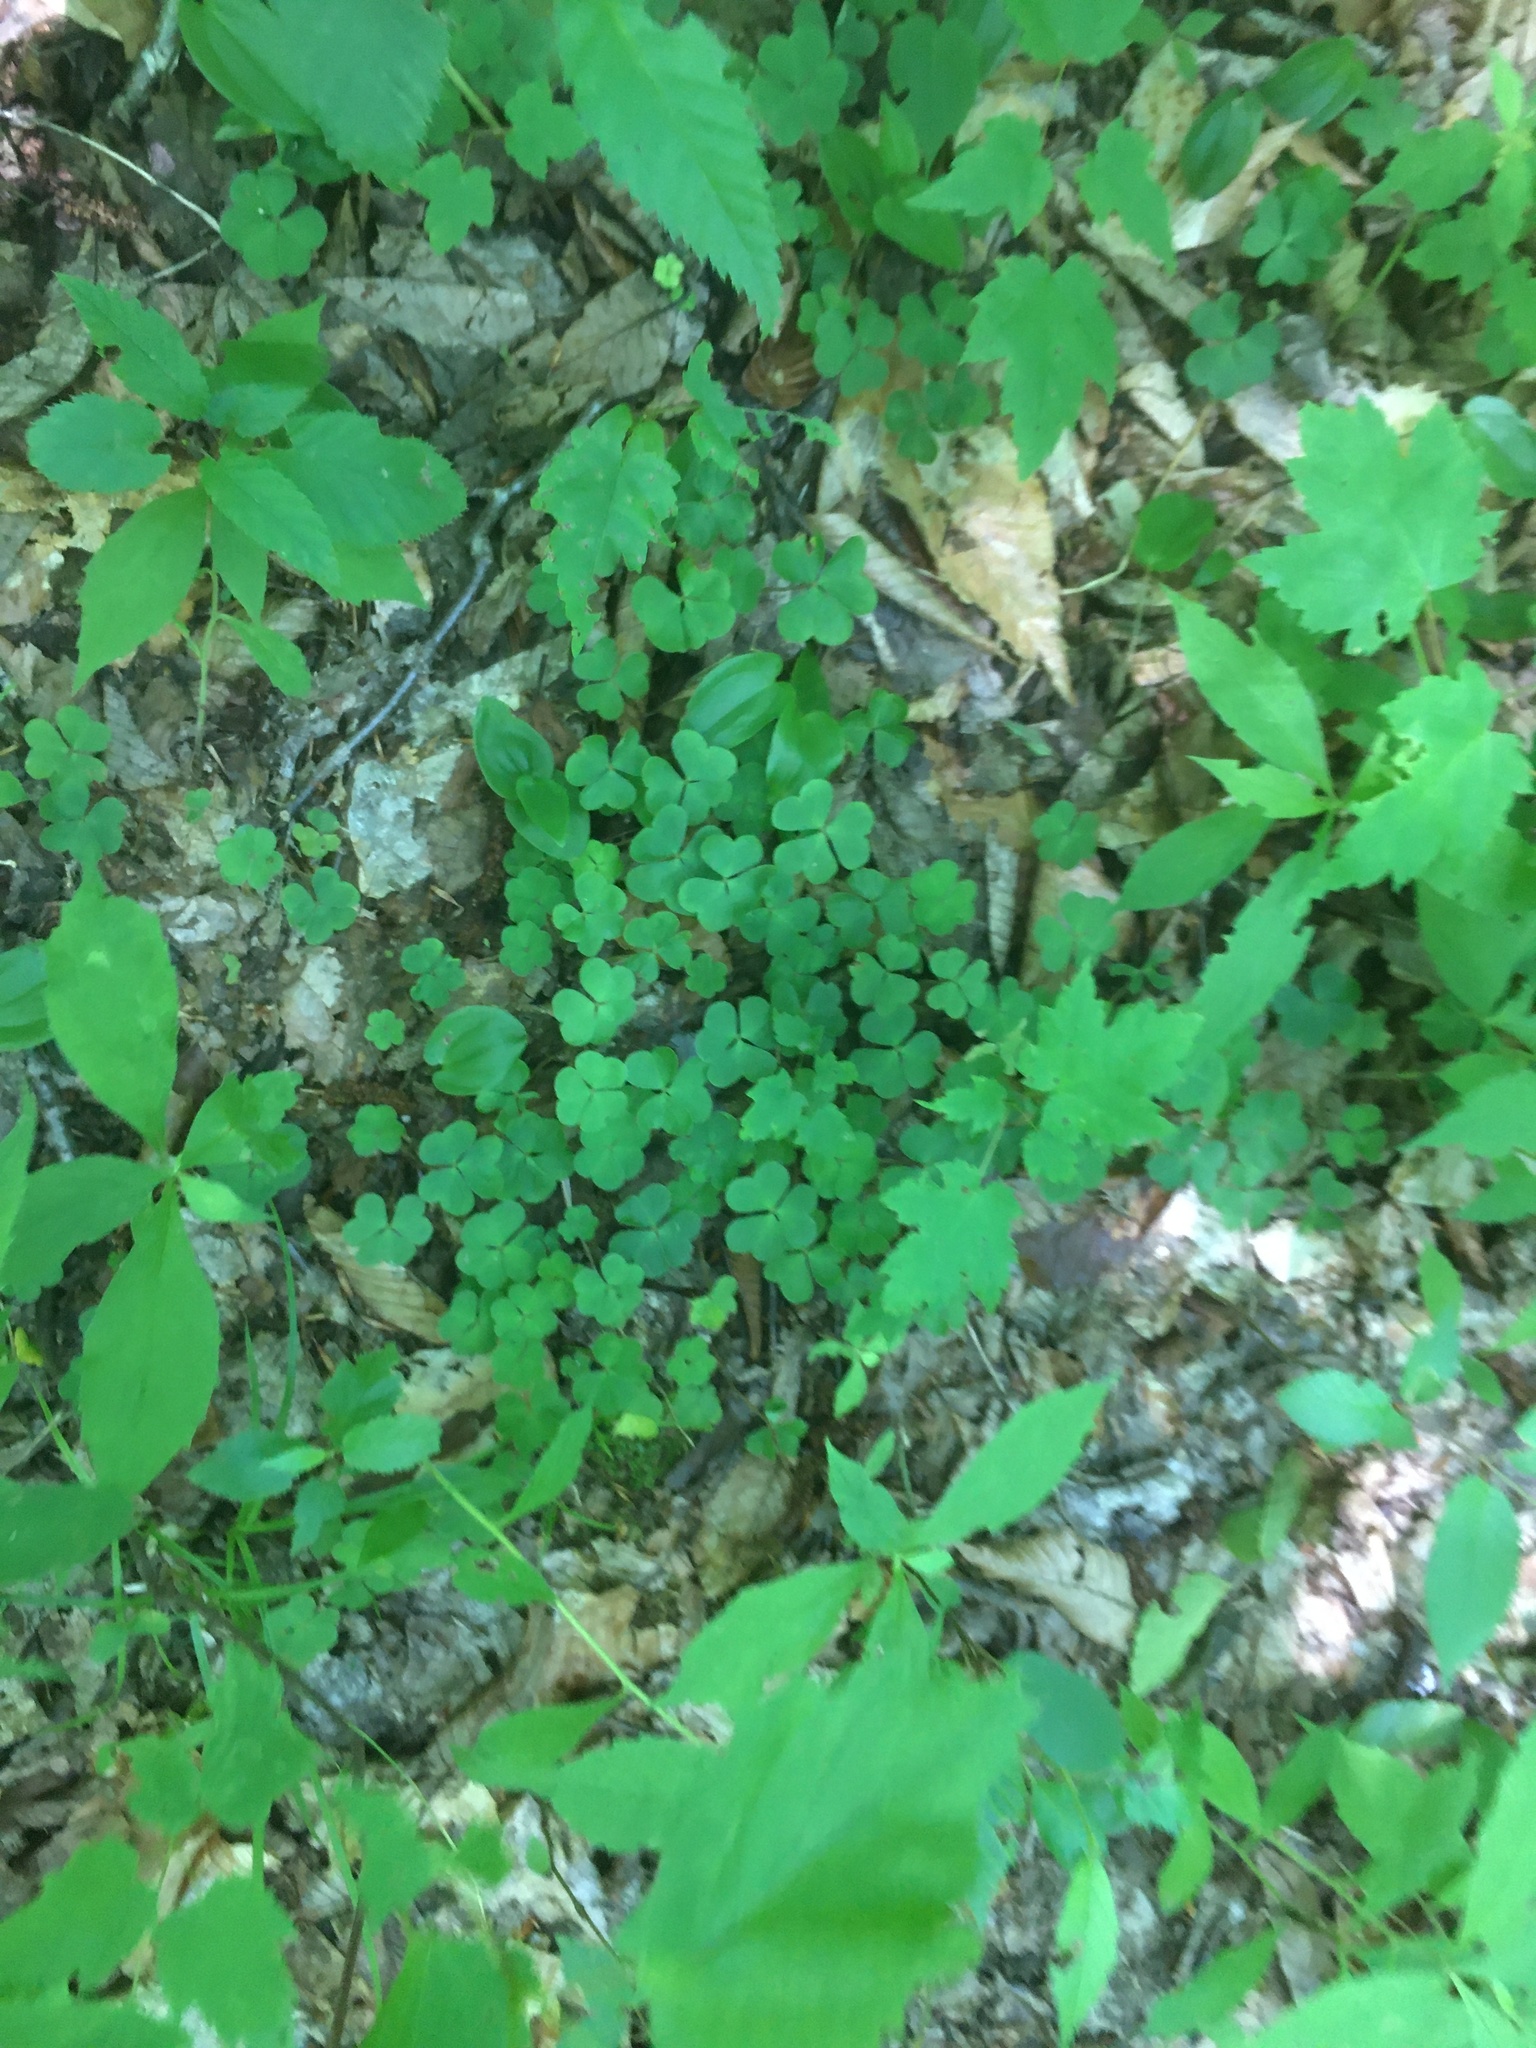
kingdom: Plantae
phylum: Tracheophyta
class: Magnoliopsida
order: Oxalidales
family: Oxalidaceae
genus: Oxalis
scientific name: Oxalis montana
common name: American wood-sorrel
